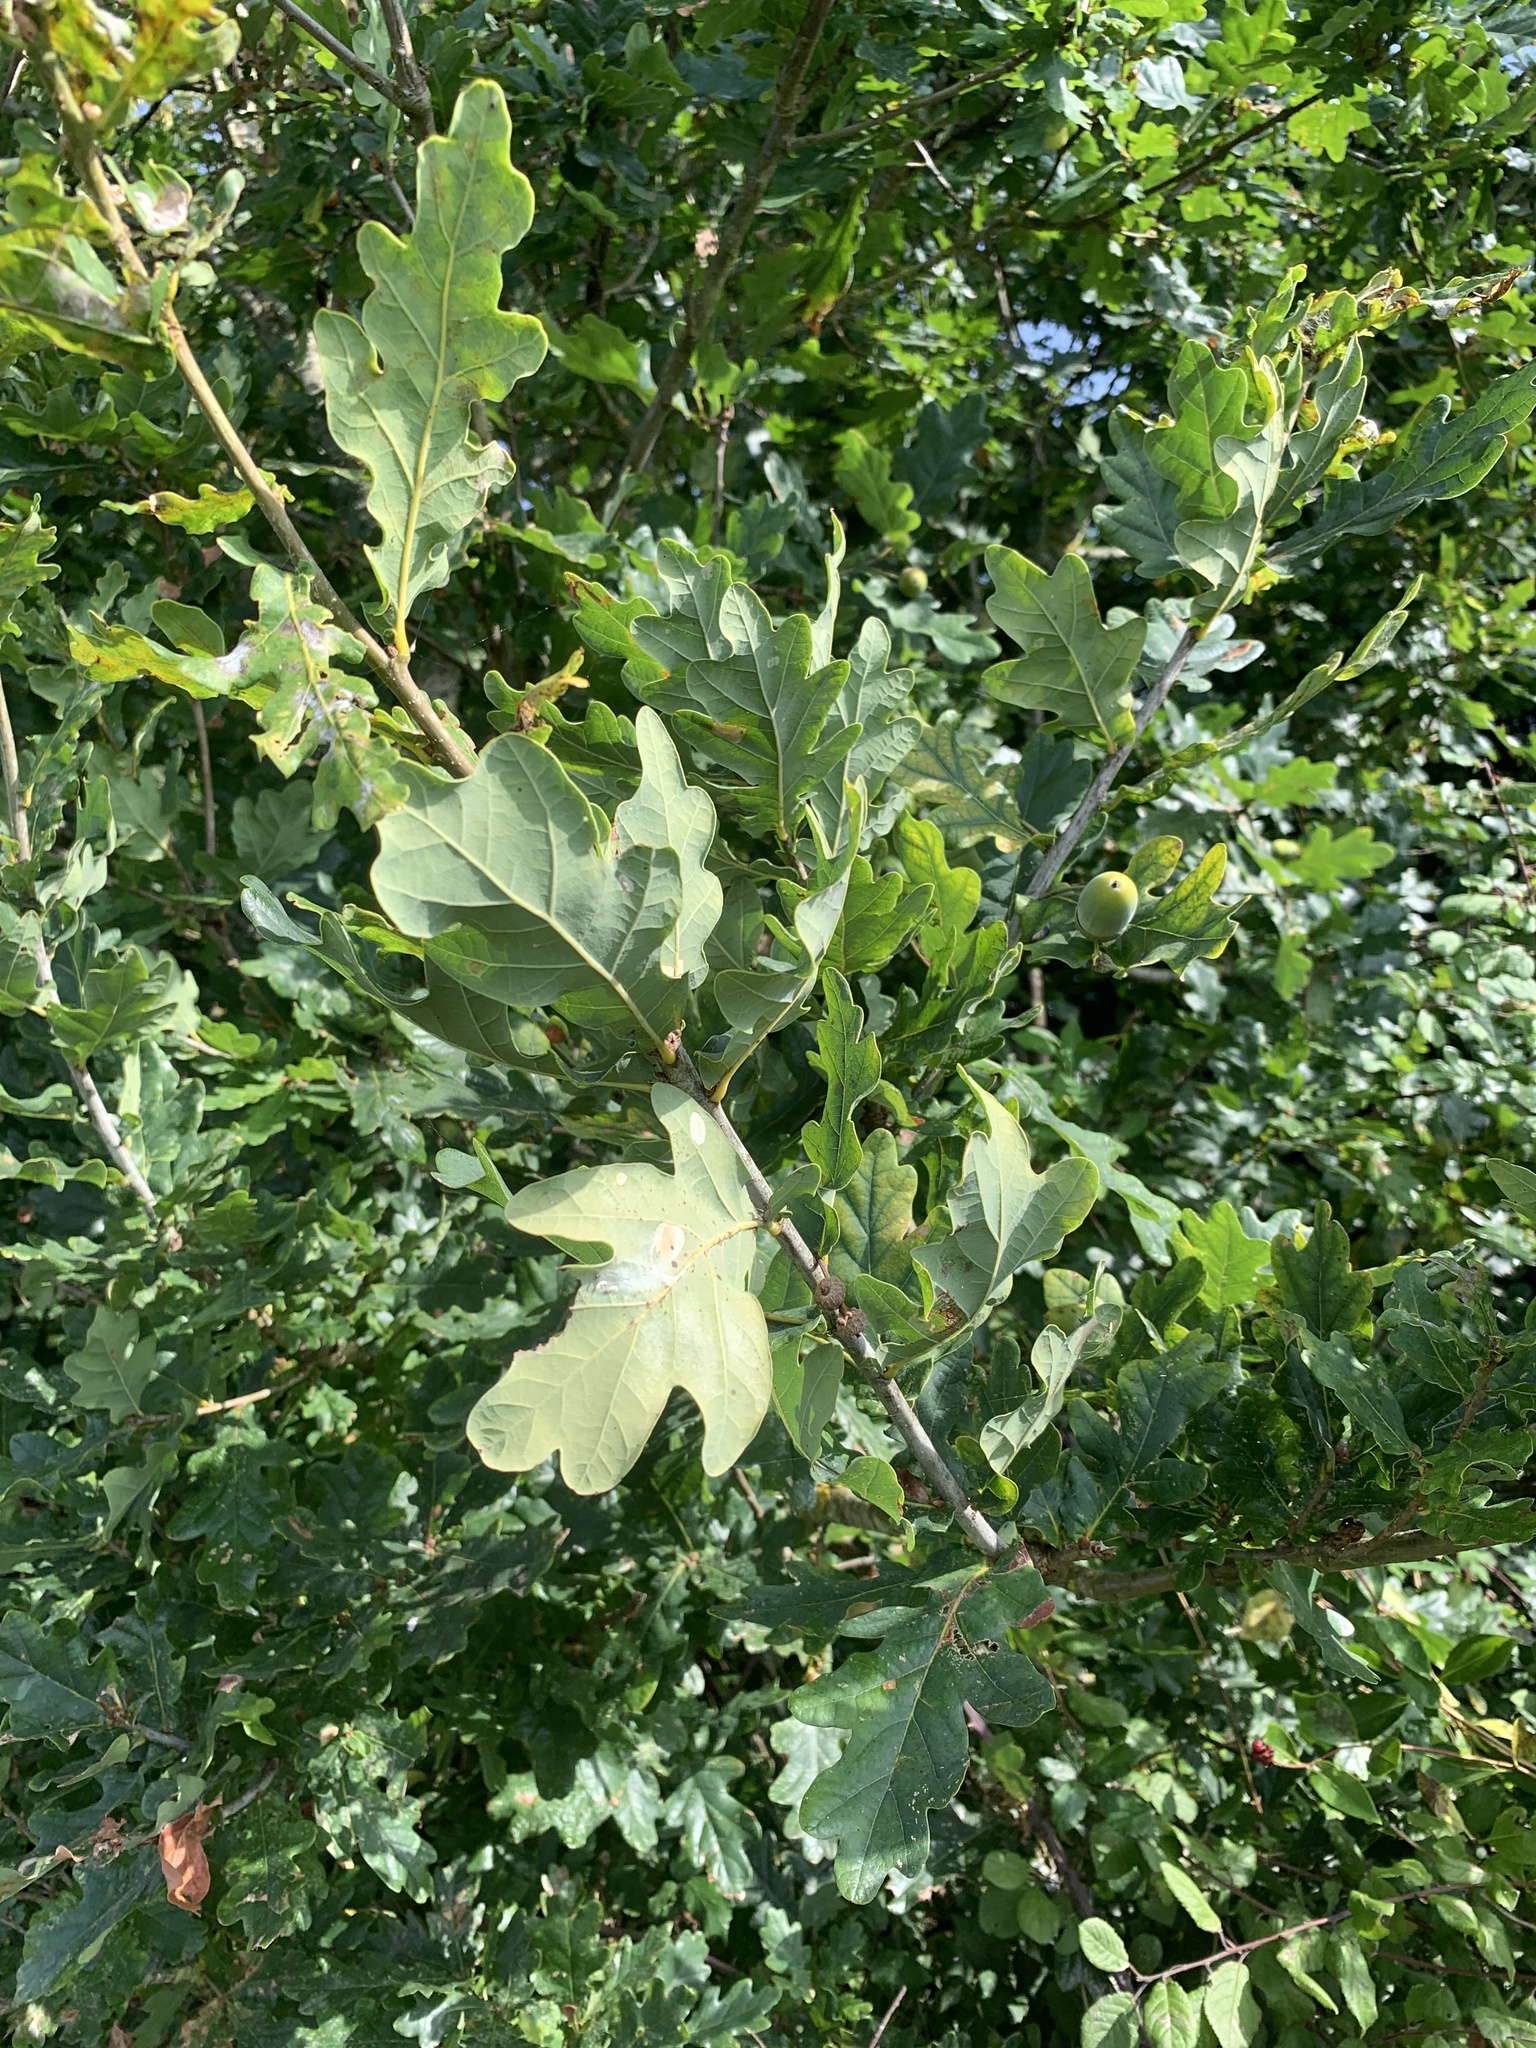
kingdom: Plantae
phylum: Tracheophyta
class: Magnoliopsida
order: Fagales
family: Fagaceae
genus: Quercus
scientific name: Quercus robur
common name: Pedunculate oak
